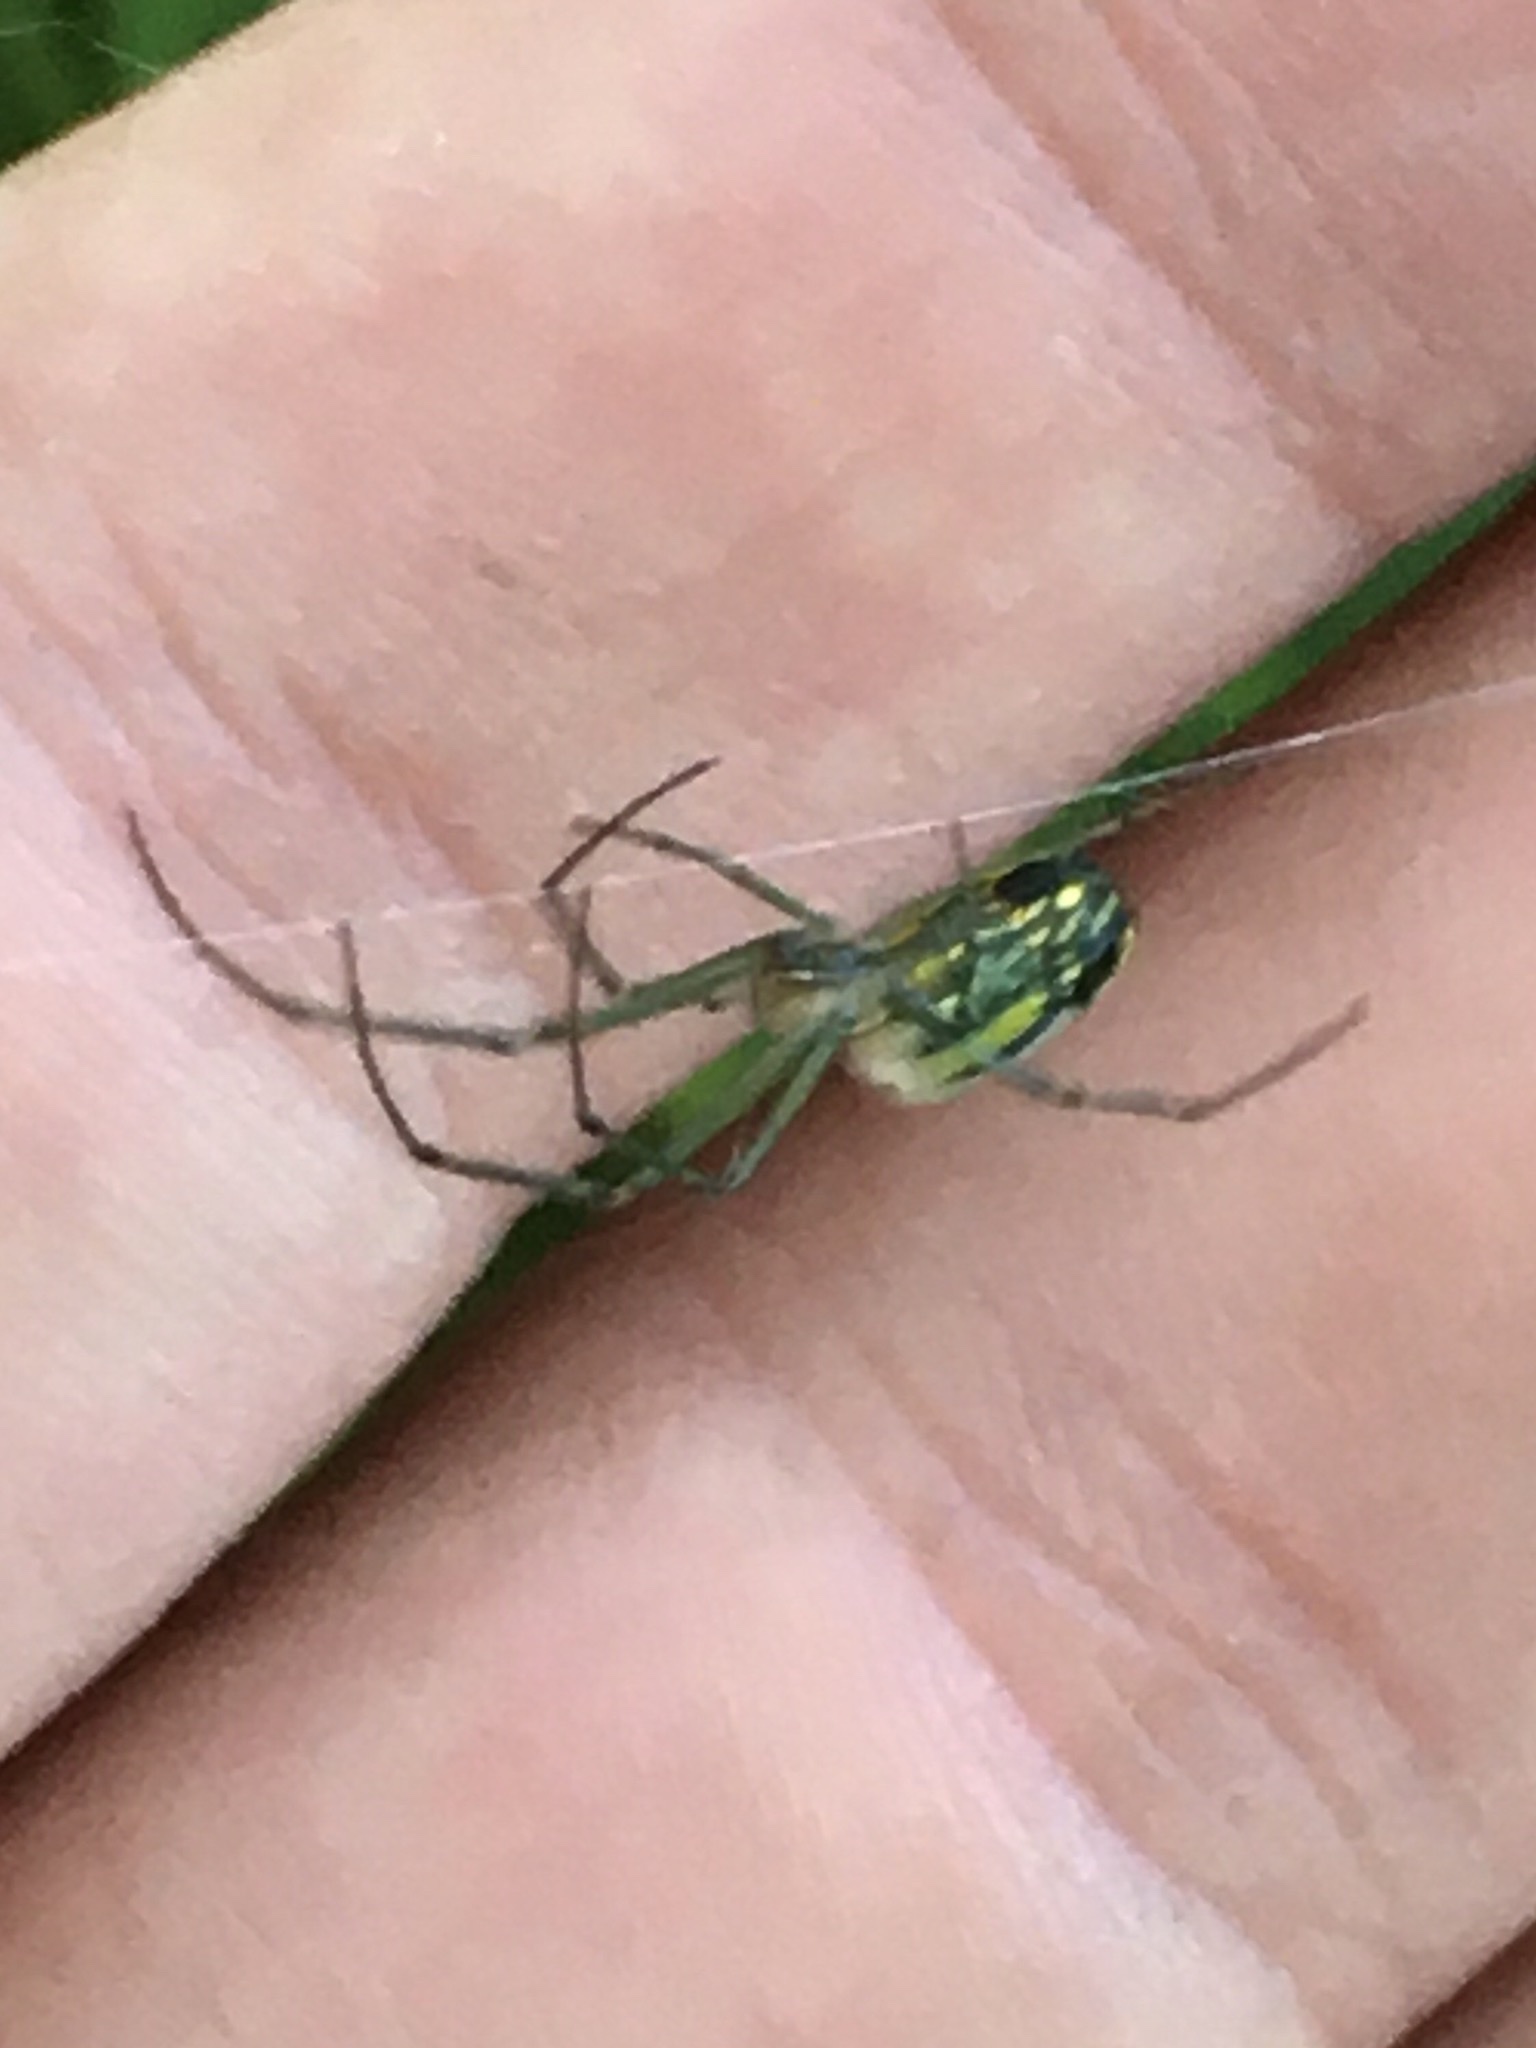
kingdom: Animalia
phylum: Arthropoda
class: Arachnida
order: Araneae
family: Tetragnathidae
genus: Leucauge
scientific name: Leucauge venusta
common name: Longjawed orb weavers
